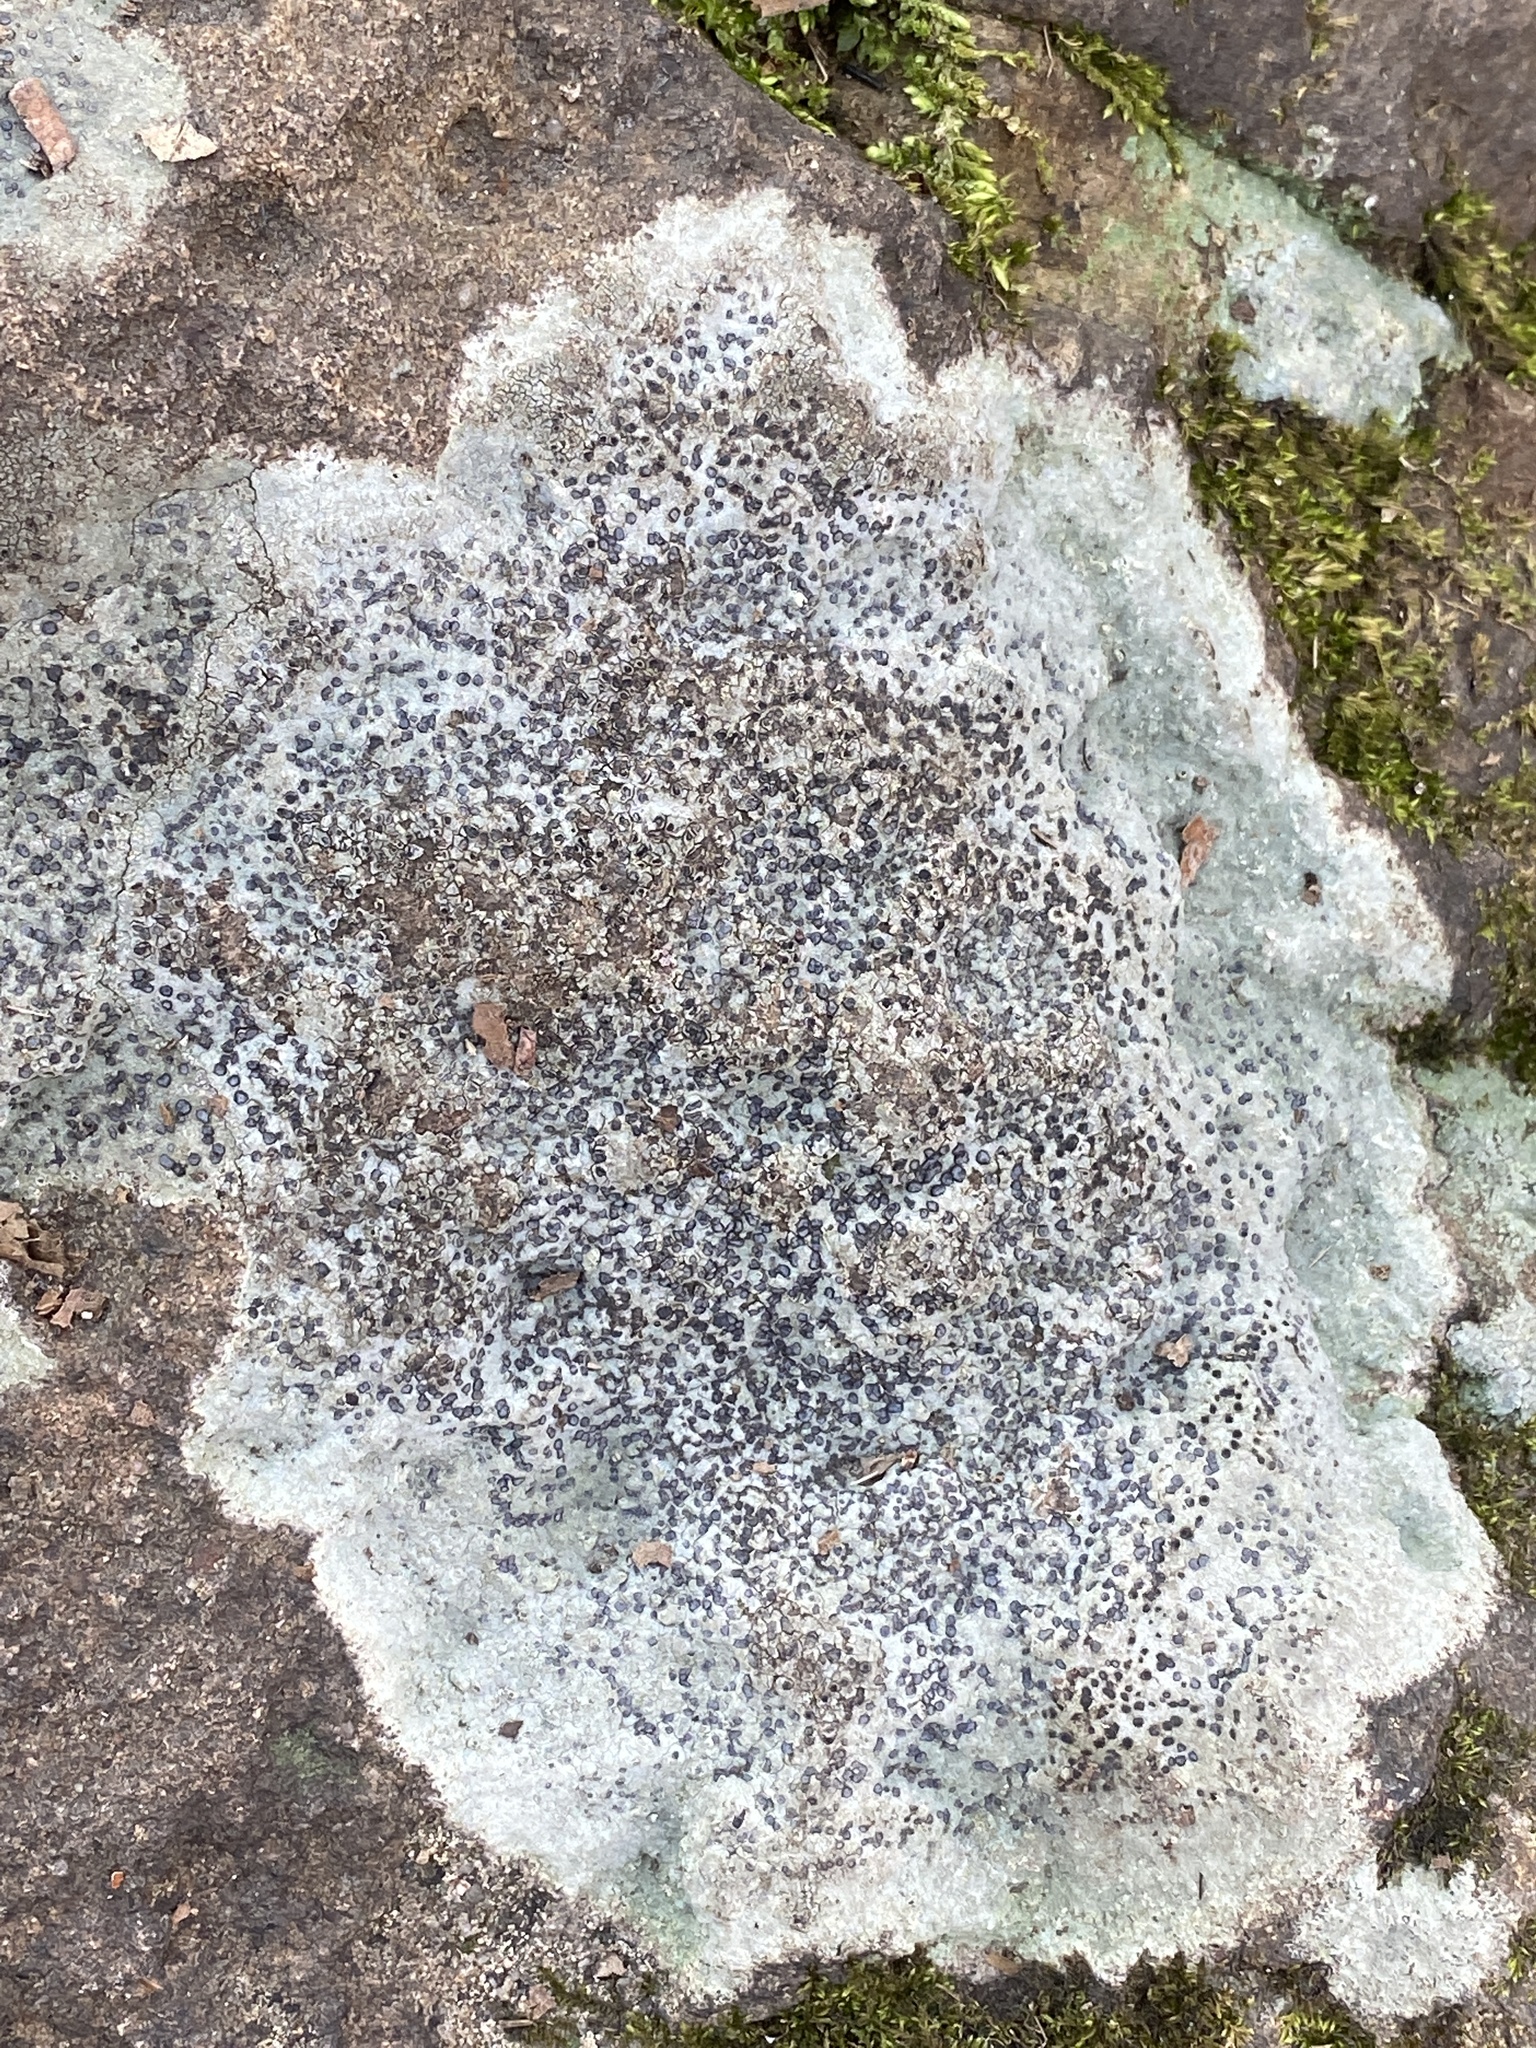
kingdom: Fungi
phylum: Ascomycota
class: Lecanoromycetes
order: Lecideales
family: Lecideaceae
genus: Porpidia
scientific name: Porpidia albocaerulescens
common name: Smokey-eyed boulder lichen
